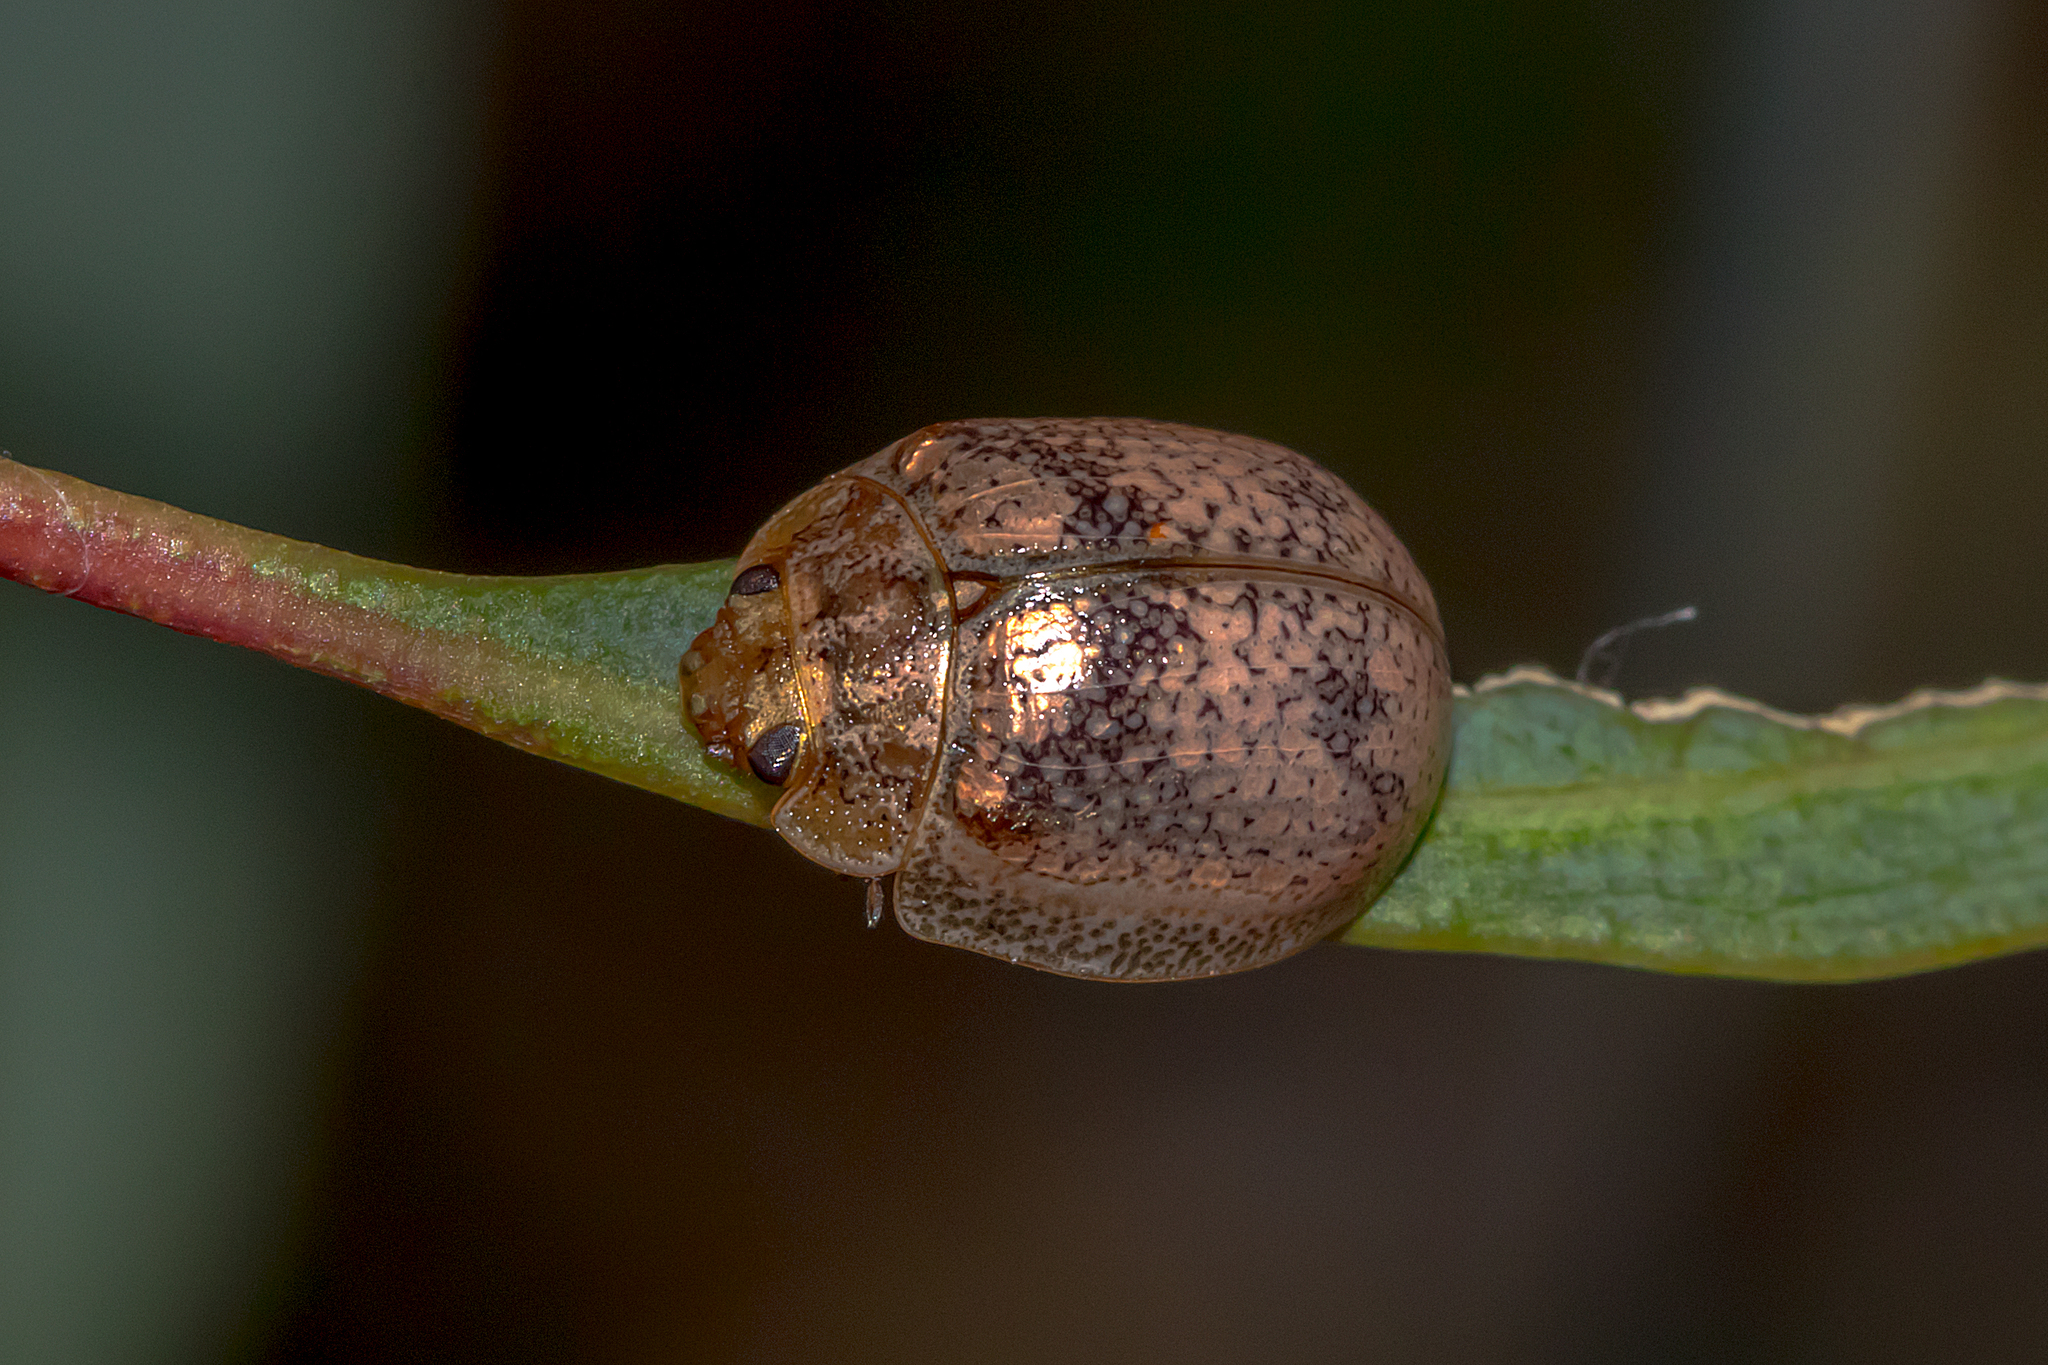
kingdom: Animalia
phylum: Arthropoda
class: Insecta
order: Coleoptera
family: Chrysomelidae
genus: Paropsisterna
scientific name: Paropsisterna
